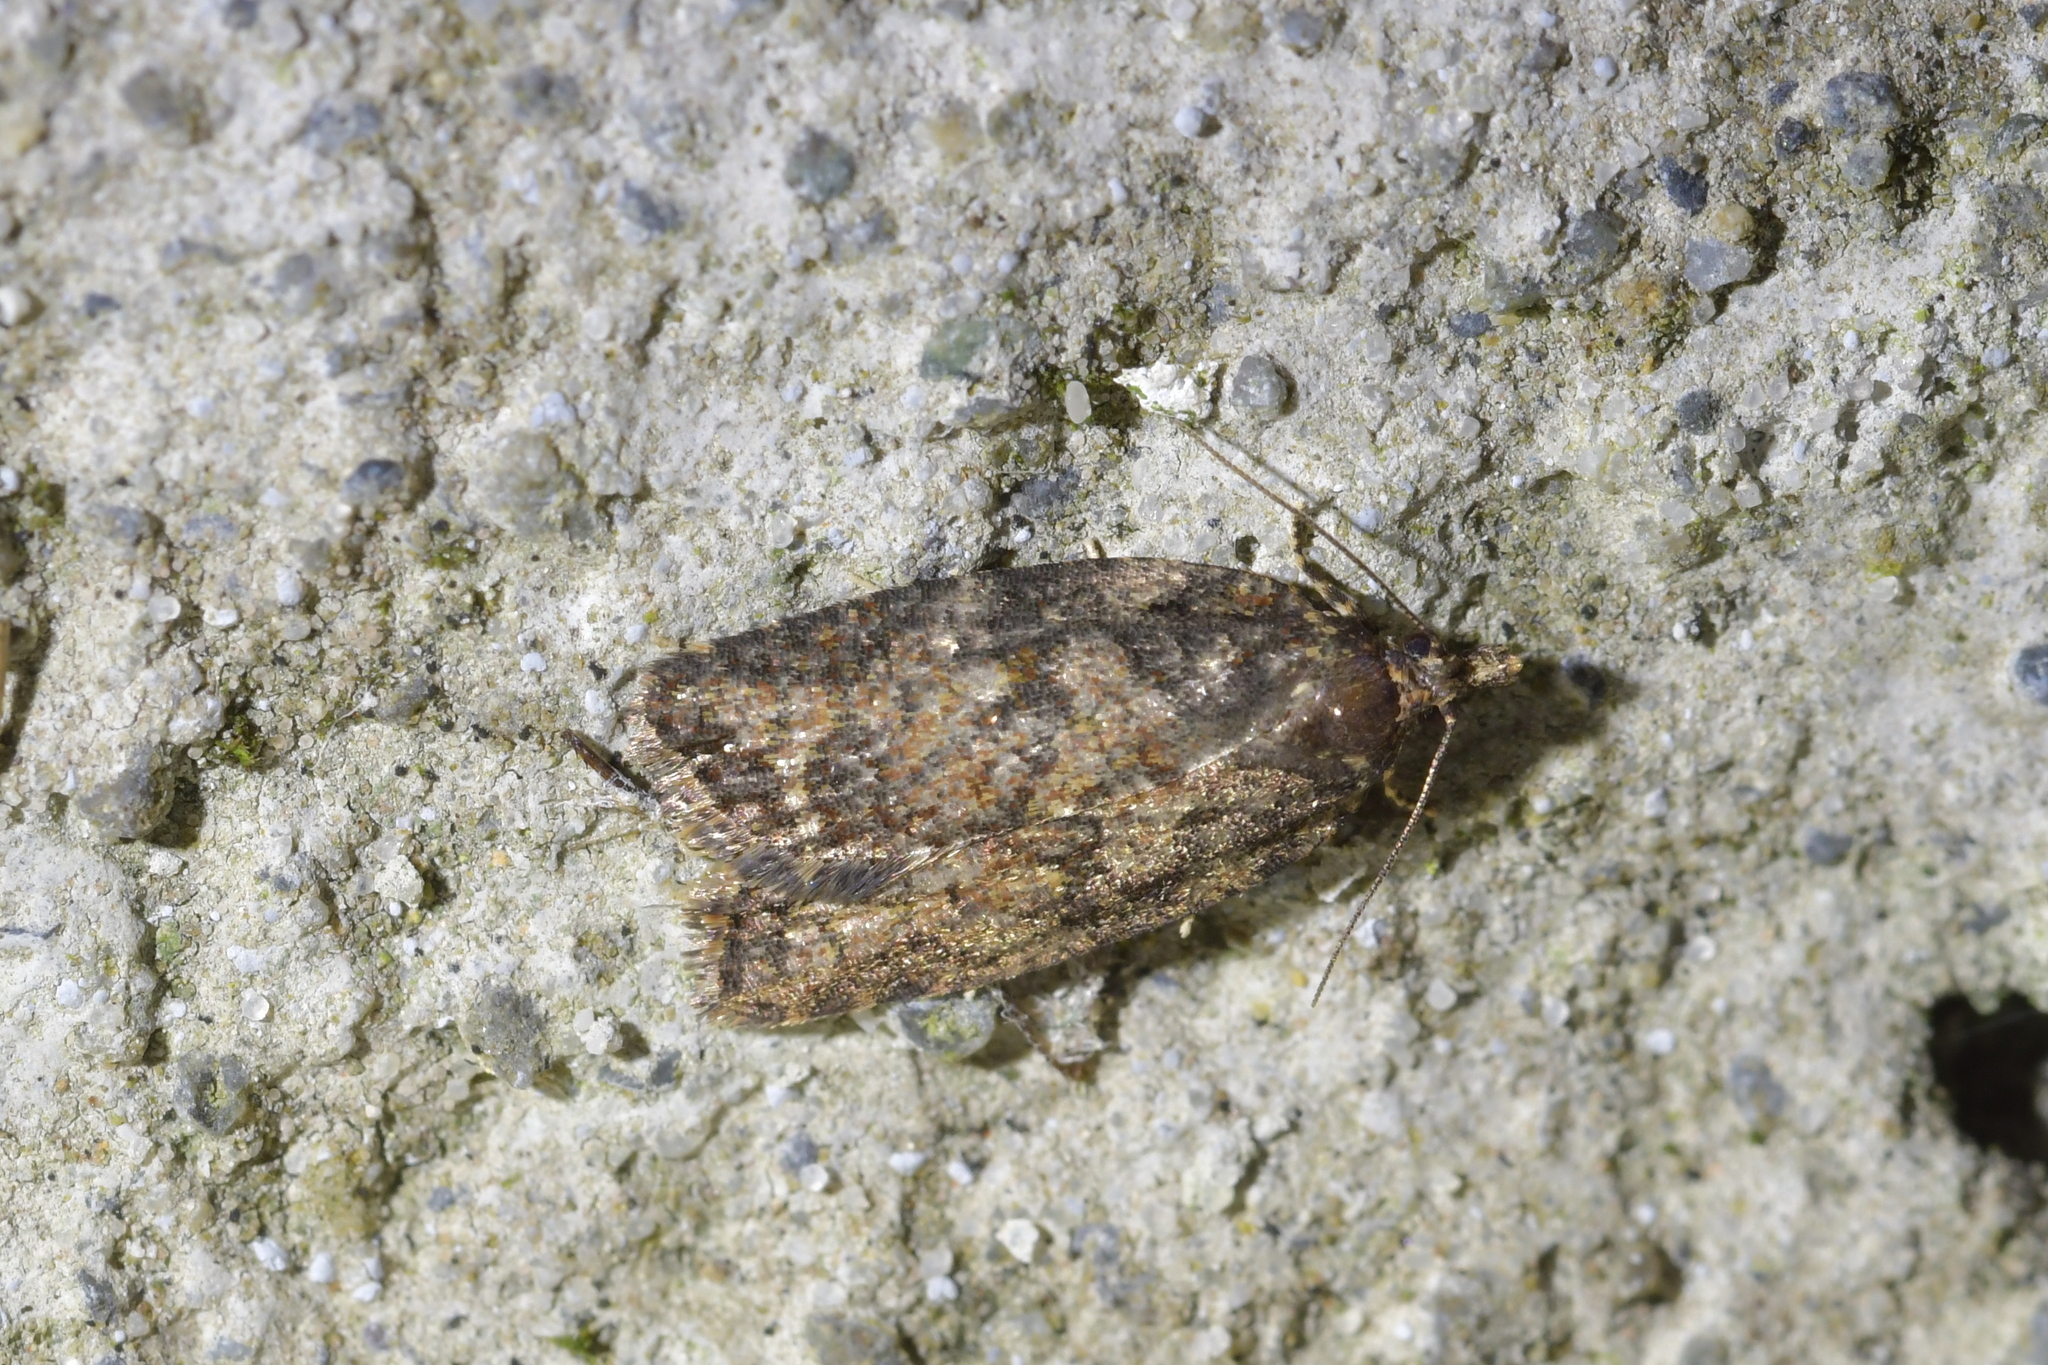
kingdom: Animalia
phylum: Arthropoda
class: Insecta
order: Lepidoptera
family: Tortricidae
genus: Capua
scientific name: Capua intractana
